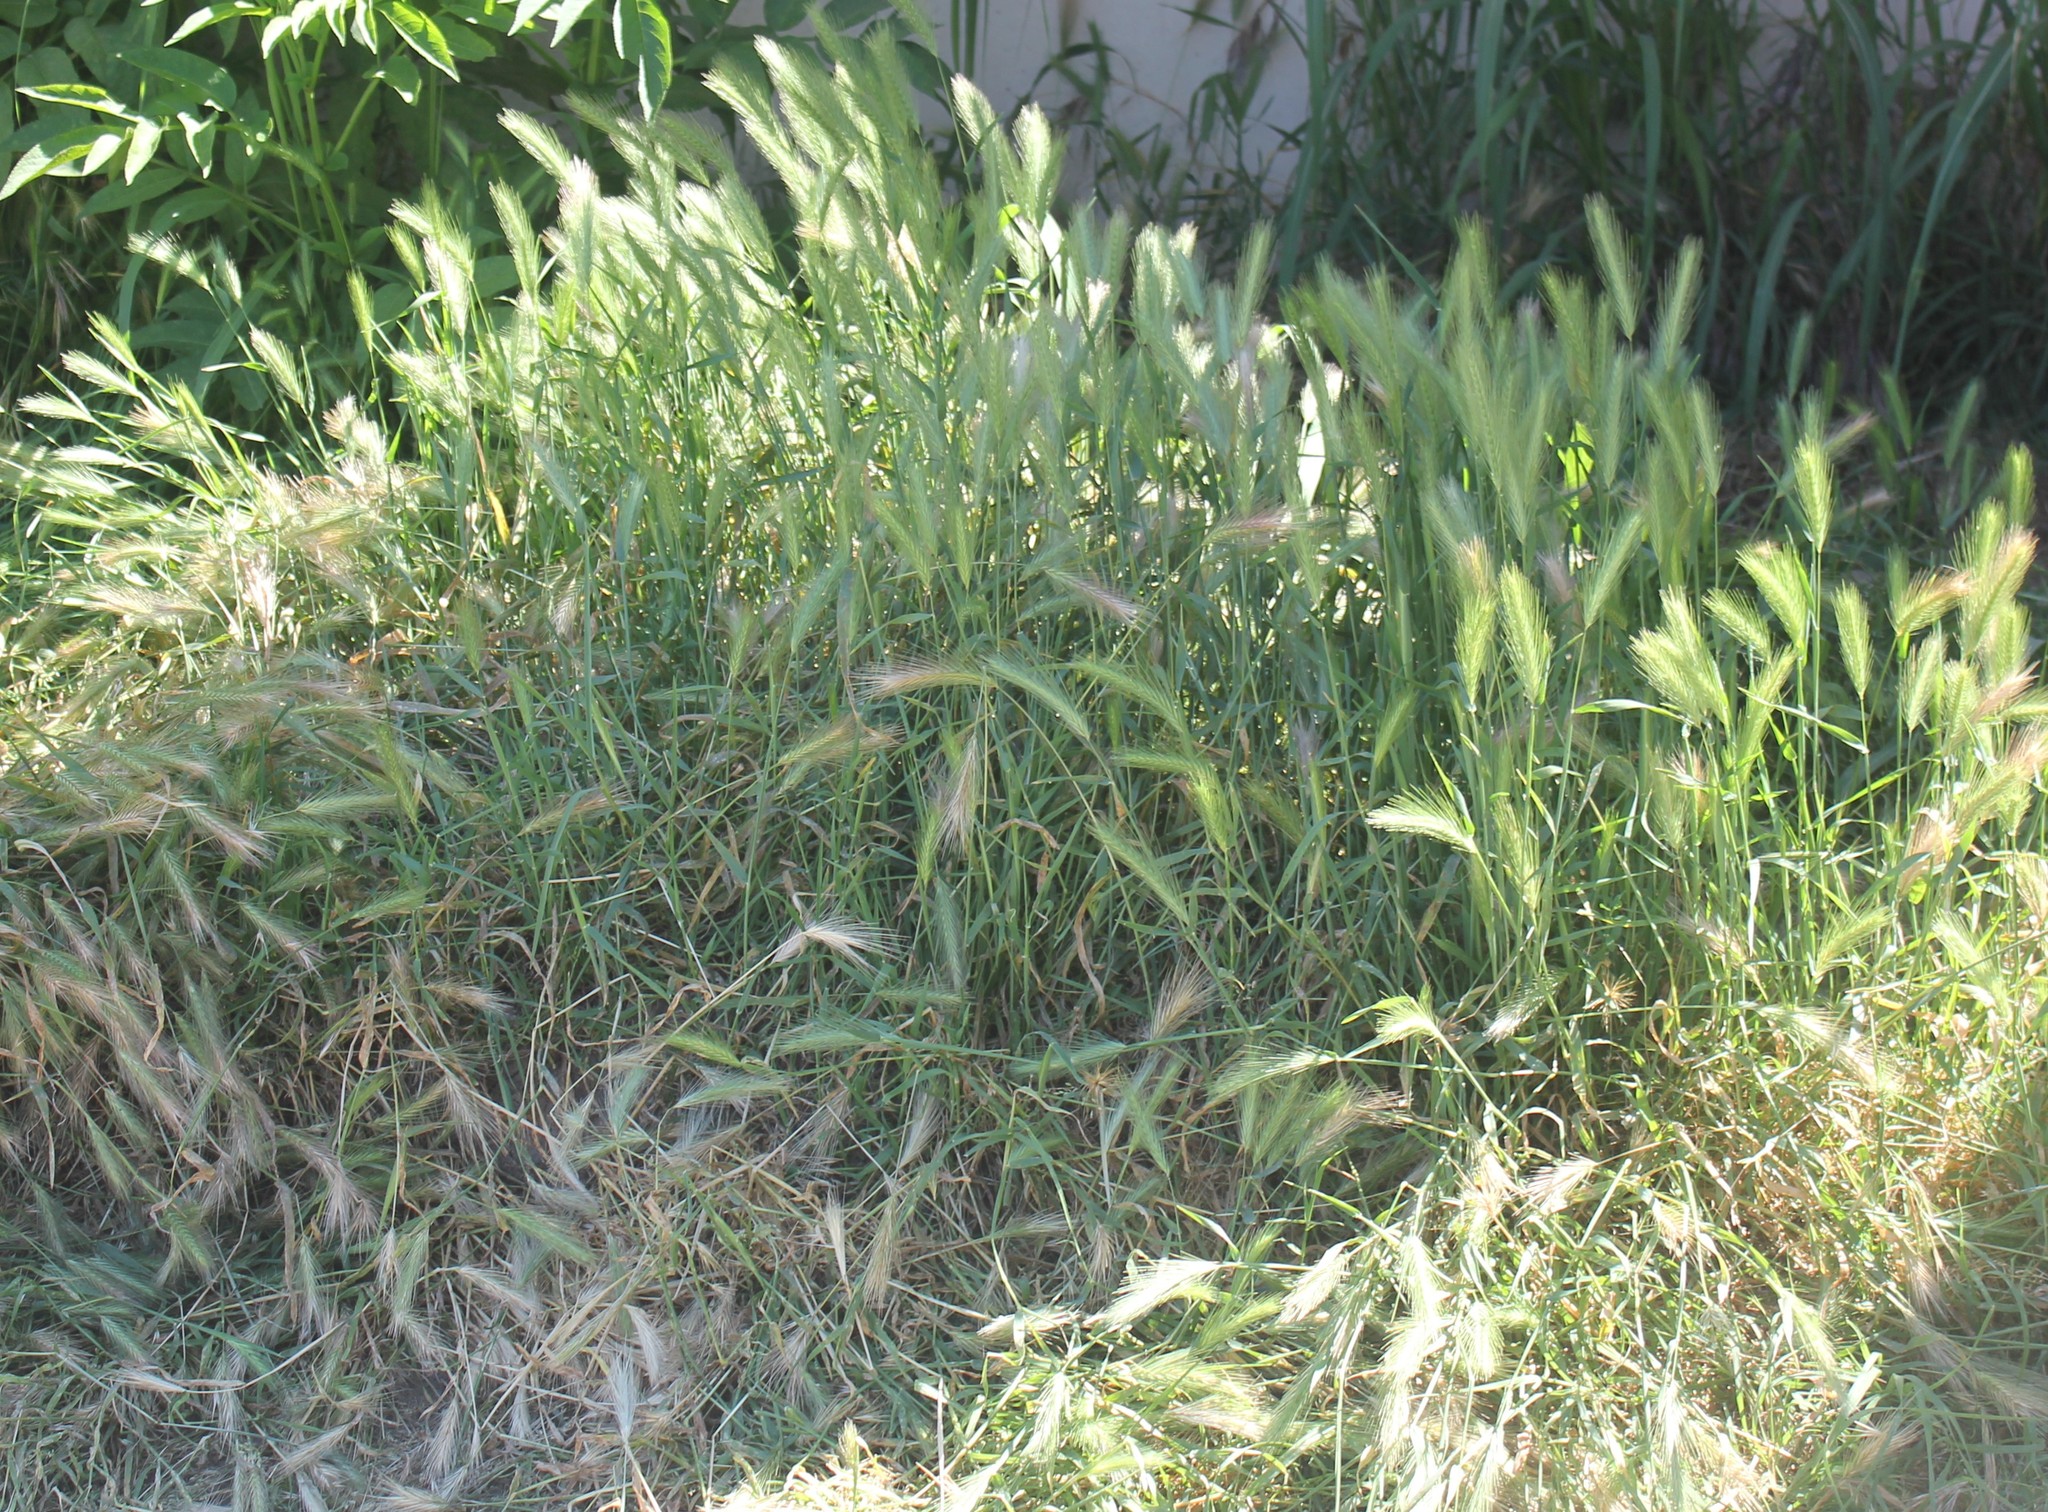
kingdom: Plantae
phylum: Tracheophyta
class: Liliopsida
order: Poales
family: Poaceae
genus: Hordeum
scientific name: Hordeum murinum
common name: Wall barley
